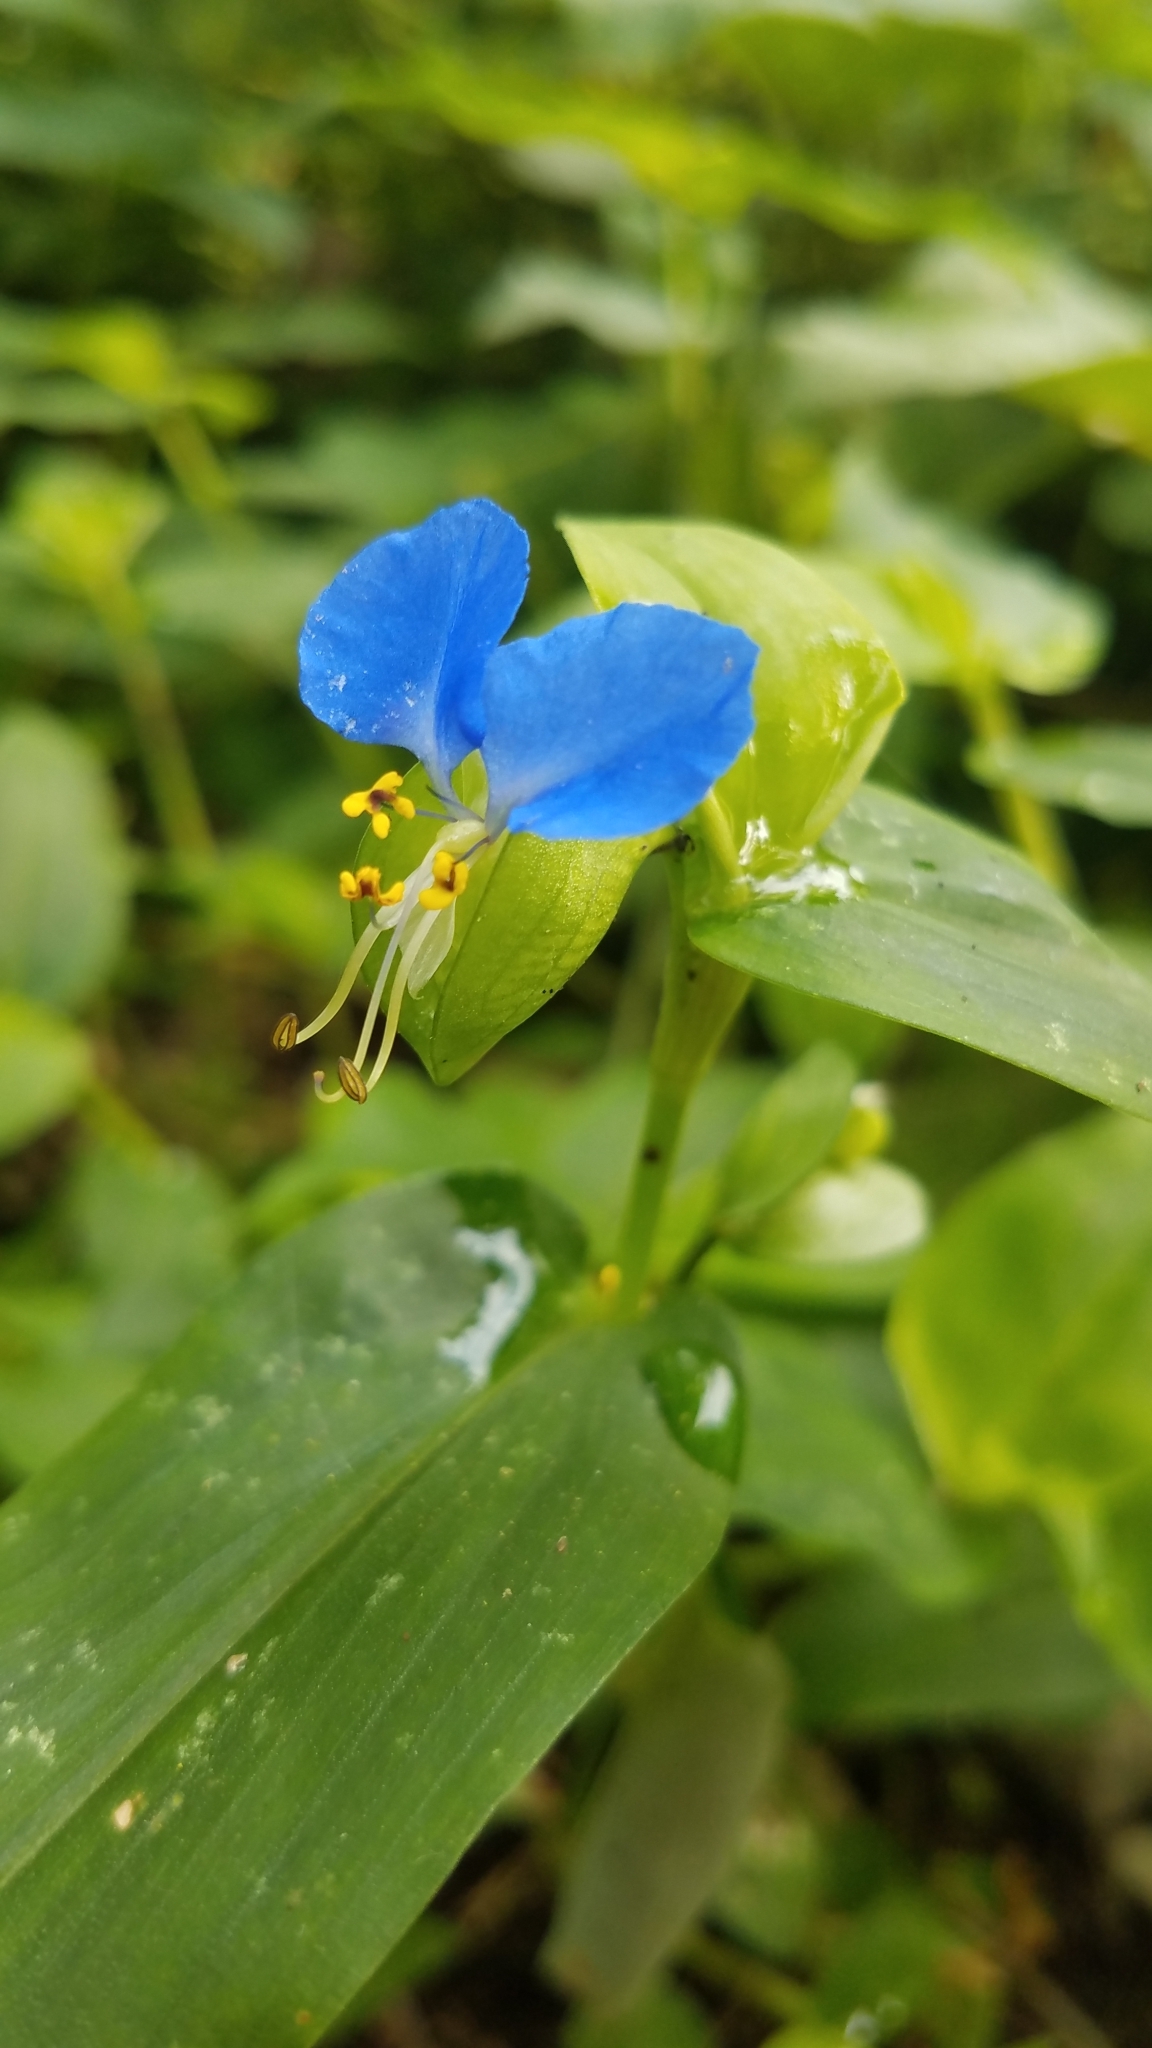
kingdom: Plantae
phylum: Tracheophyta
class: Liliopsida
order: Commelinales
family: Commelinaceae
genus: Commelina
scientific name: Commelina communis
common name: Asiatic dayflower
